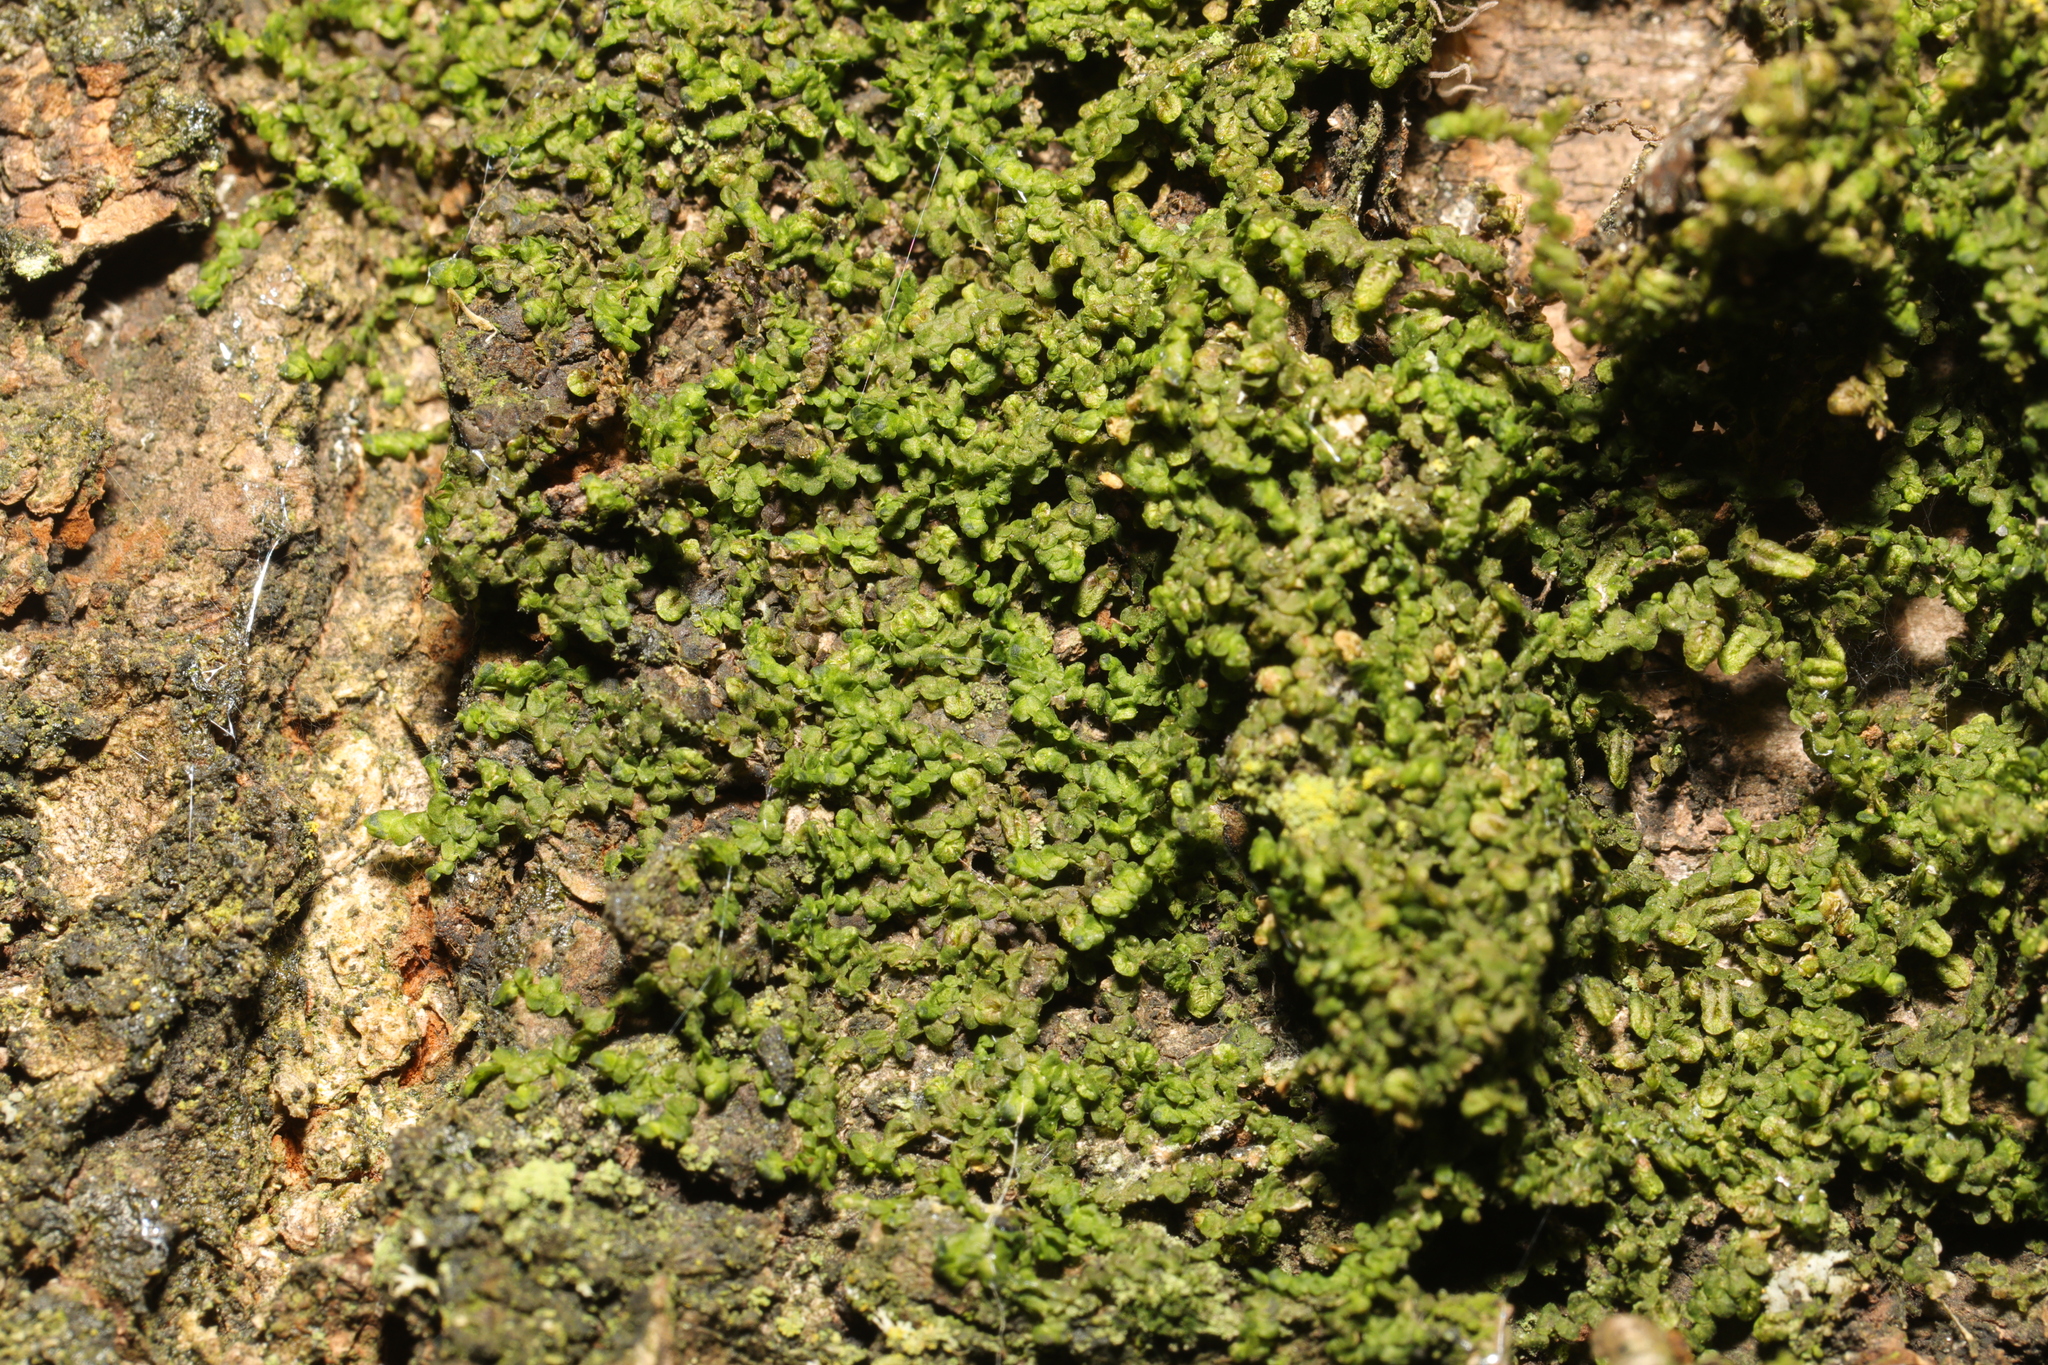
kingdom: Plantae
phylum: Marchantiophyta
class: Jungermanniopsida
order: Porellales
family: Frullaniaceae
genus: Frullania
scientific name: Frullania dilatata
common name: Dilated scalewort
